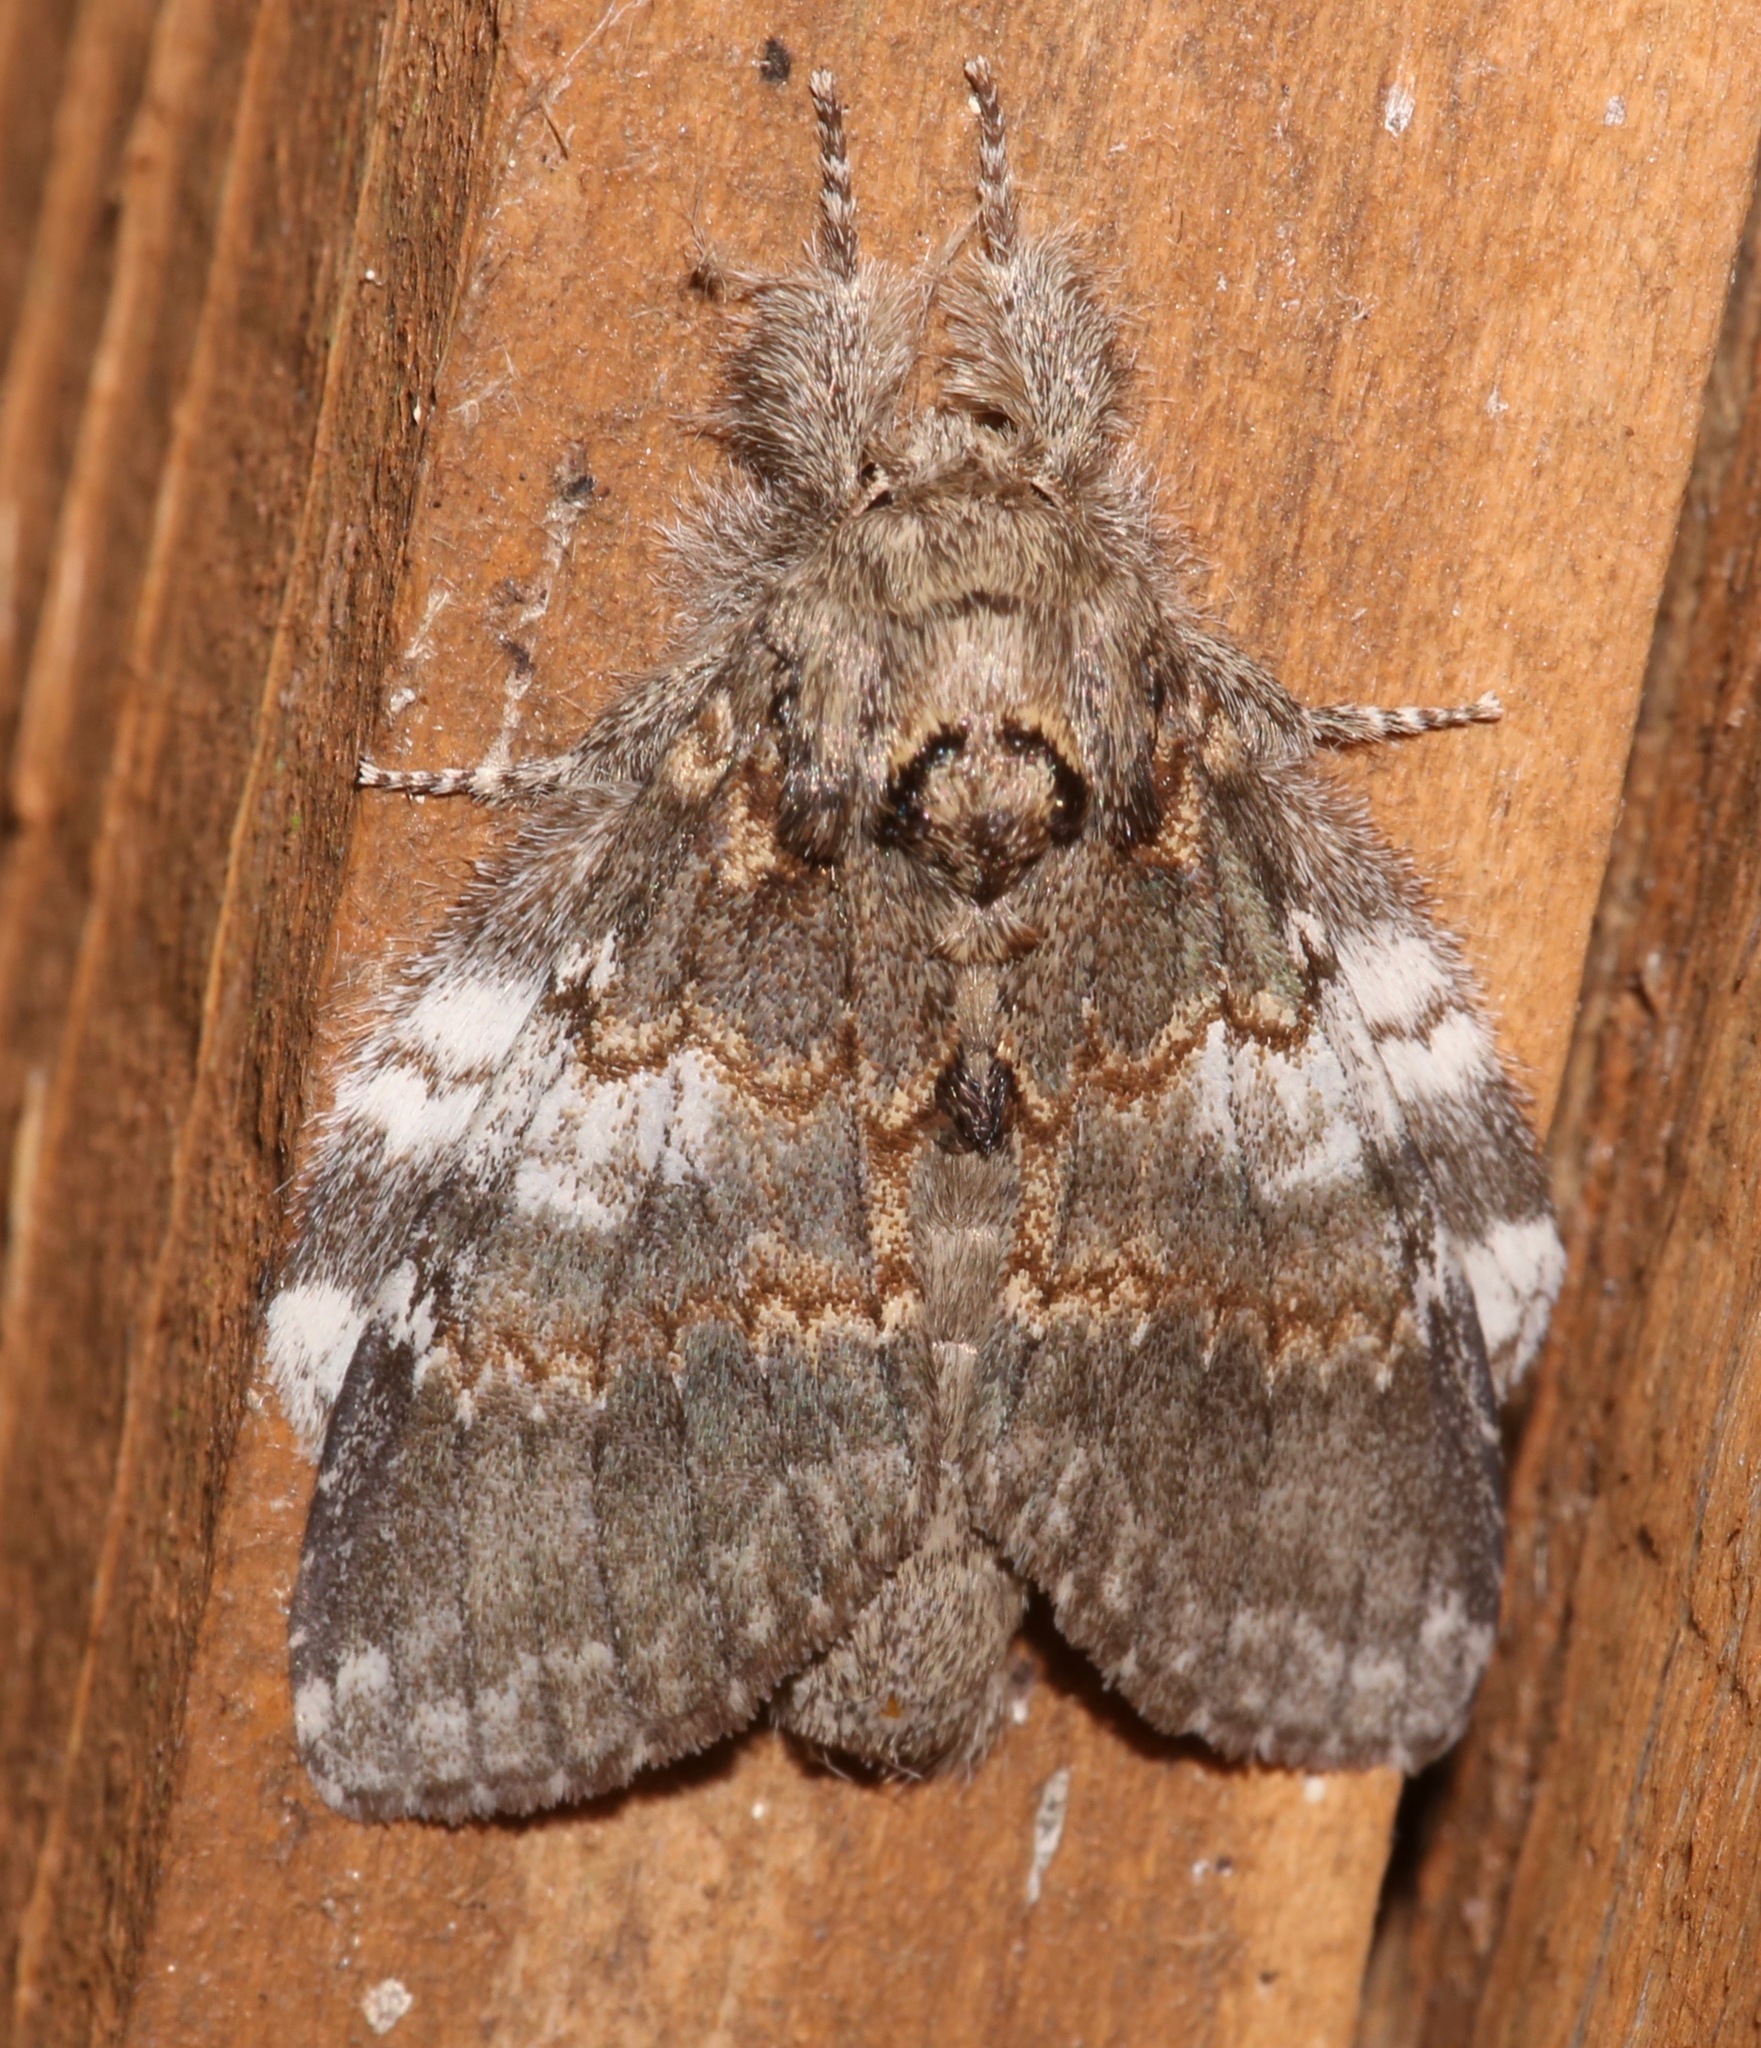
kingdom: Animalia
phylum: Arthropoda
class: Insecta
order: Lepidoptera
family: Notodontidae
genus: Peridea
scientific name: Peridea angulosa
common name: Angulose prominent
